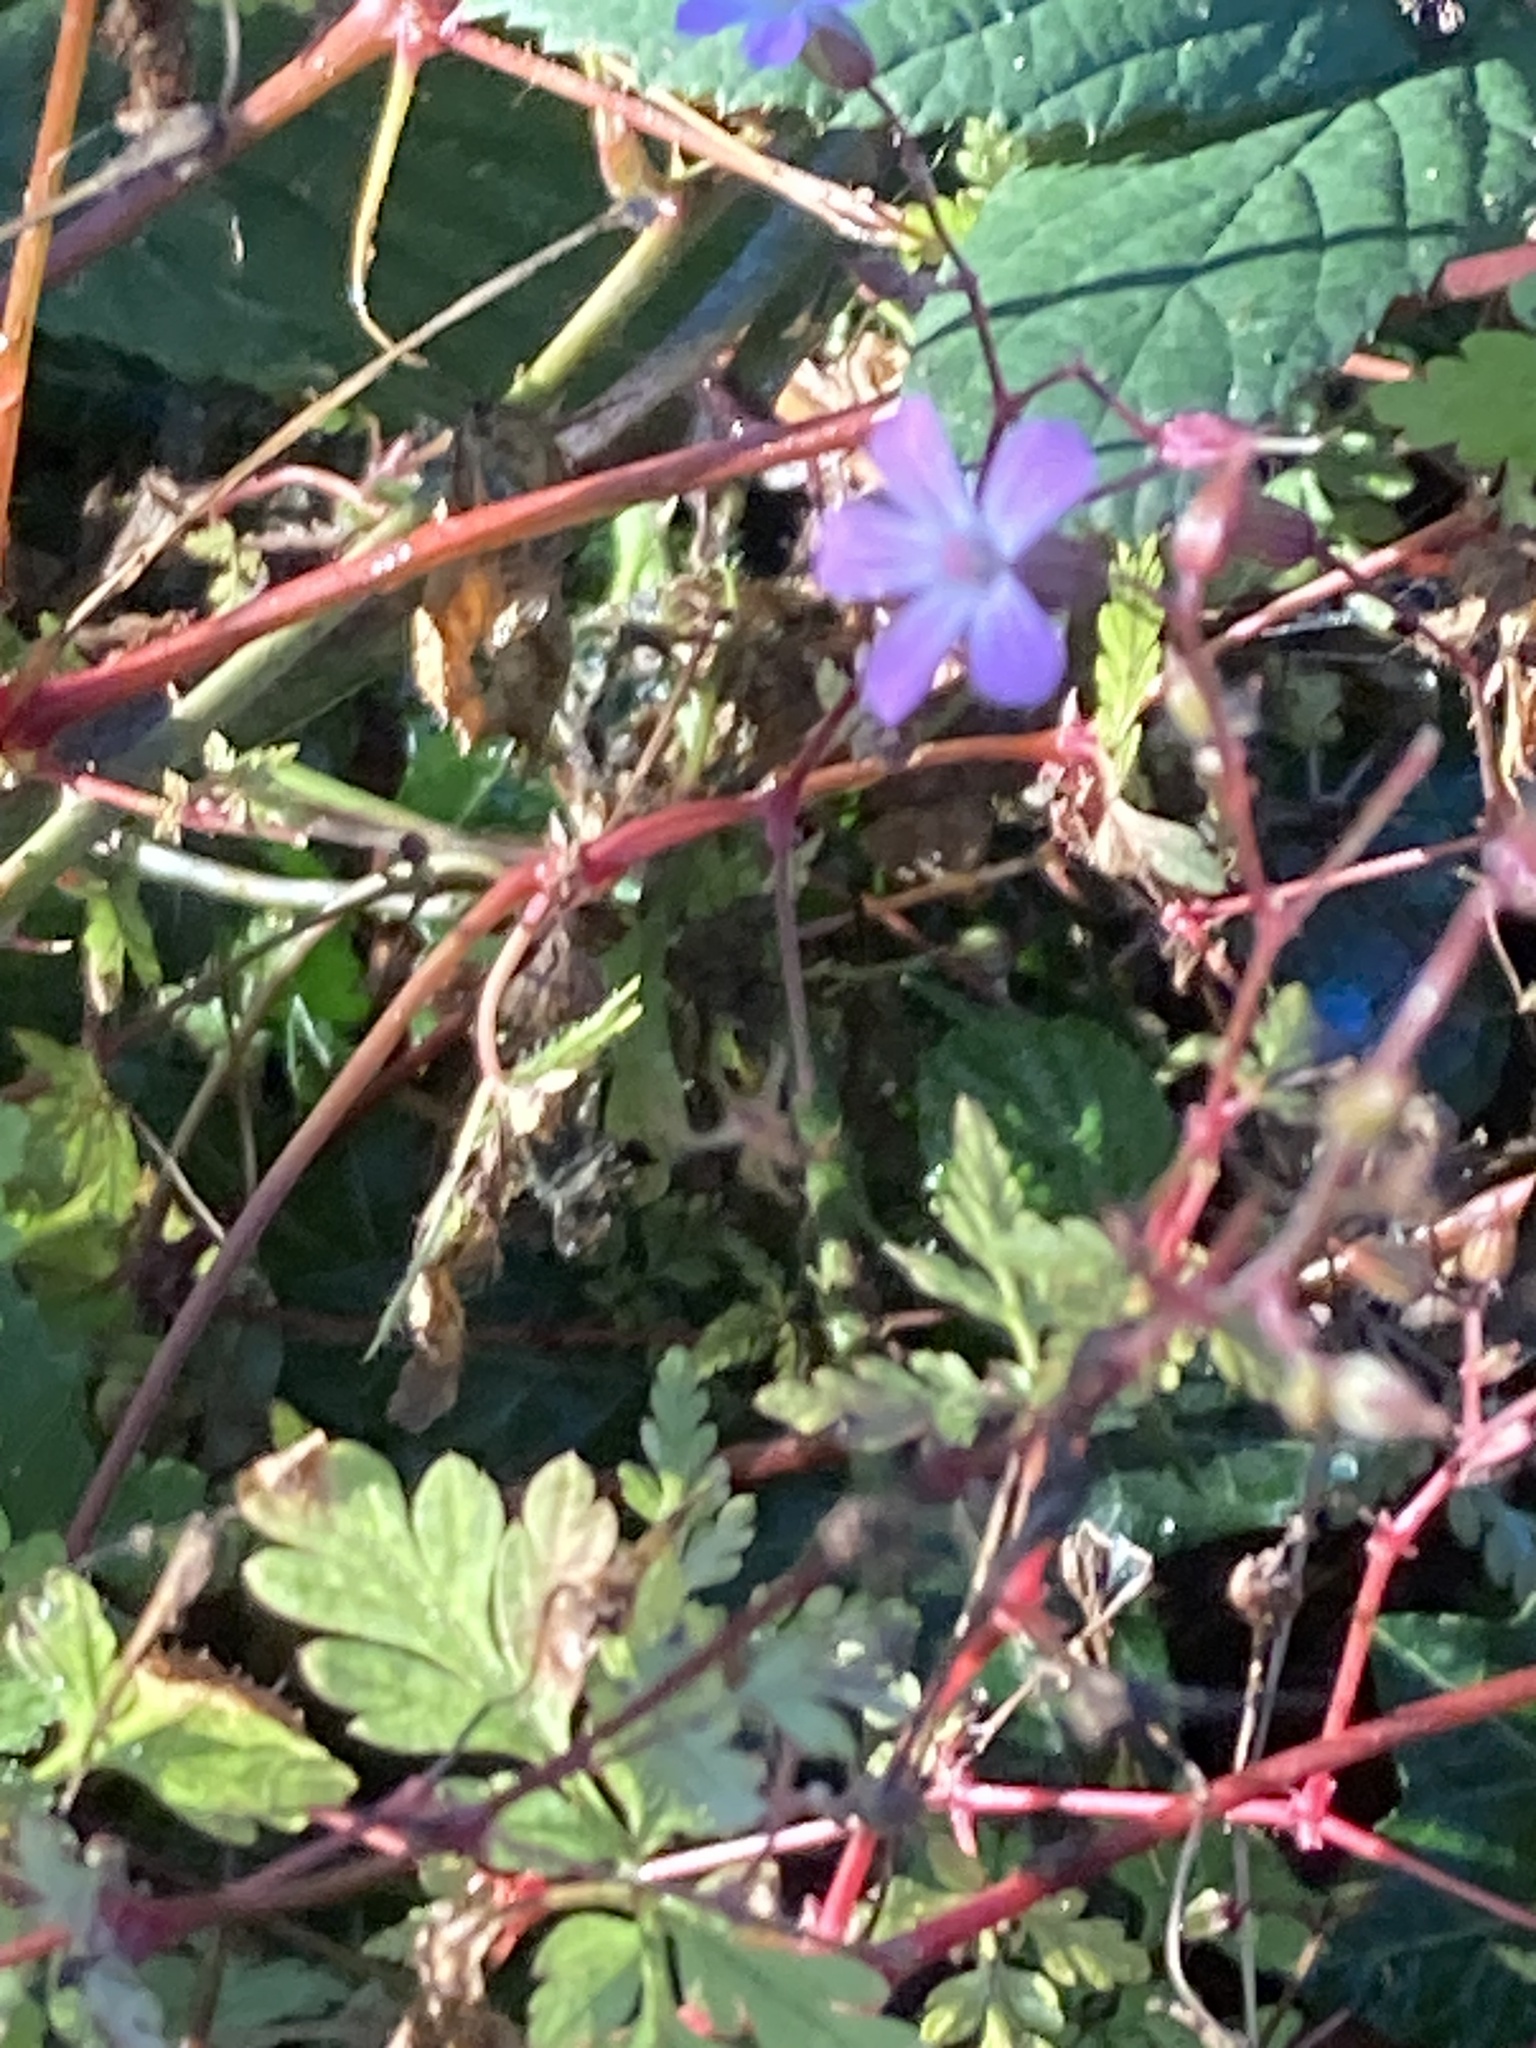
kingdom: Plantae
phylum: Tracheophyta
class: Magnoliopsida
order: Geraniales
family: Geraniaceae
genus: Geranium
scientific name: Geranium robertianum
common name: Herb-robert
